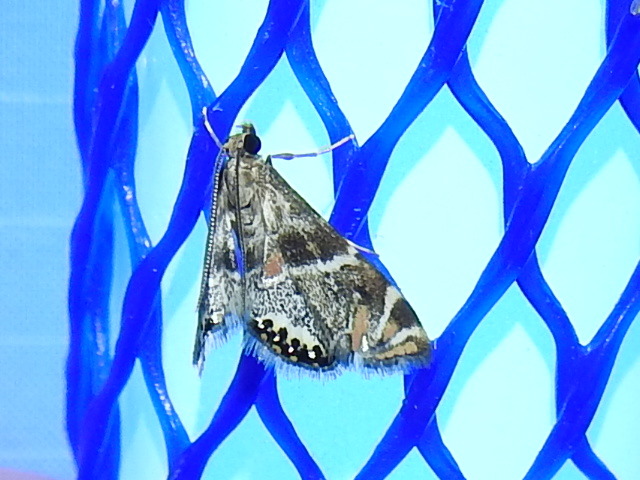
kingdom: Animalia
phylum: Arthropoda
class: Insecta
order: Lepidoptera
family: Crambidae
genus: Petrophila
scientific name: Petrophila jaliscalis
